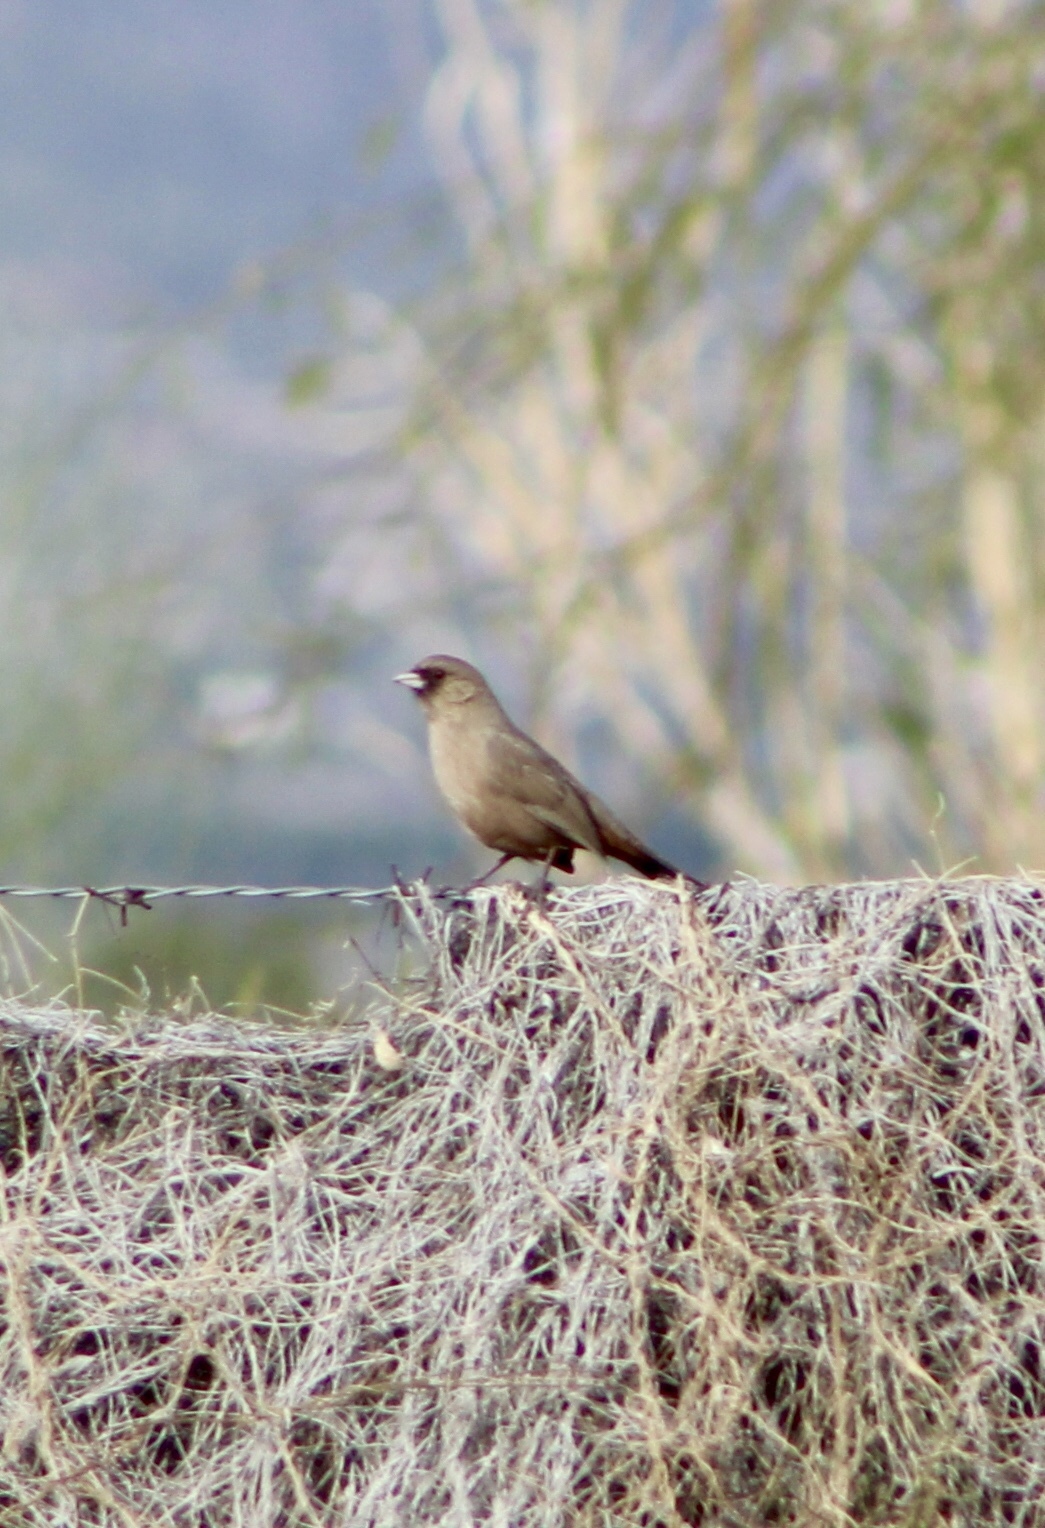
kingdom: Animalia
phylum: Chordata
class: Aves
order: Passeriformes
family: Passerellidae
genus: Melozone
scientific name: Melozone aberti
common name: Abert's towhee
